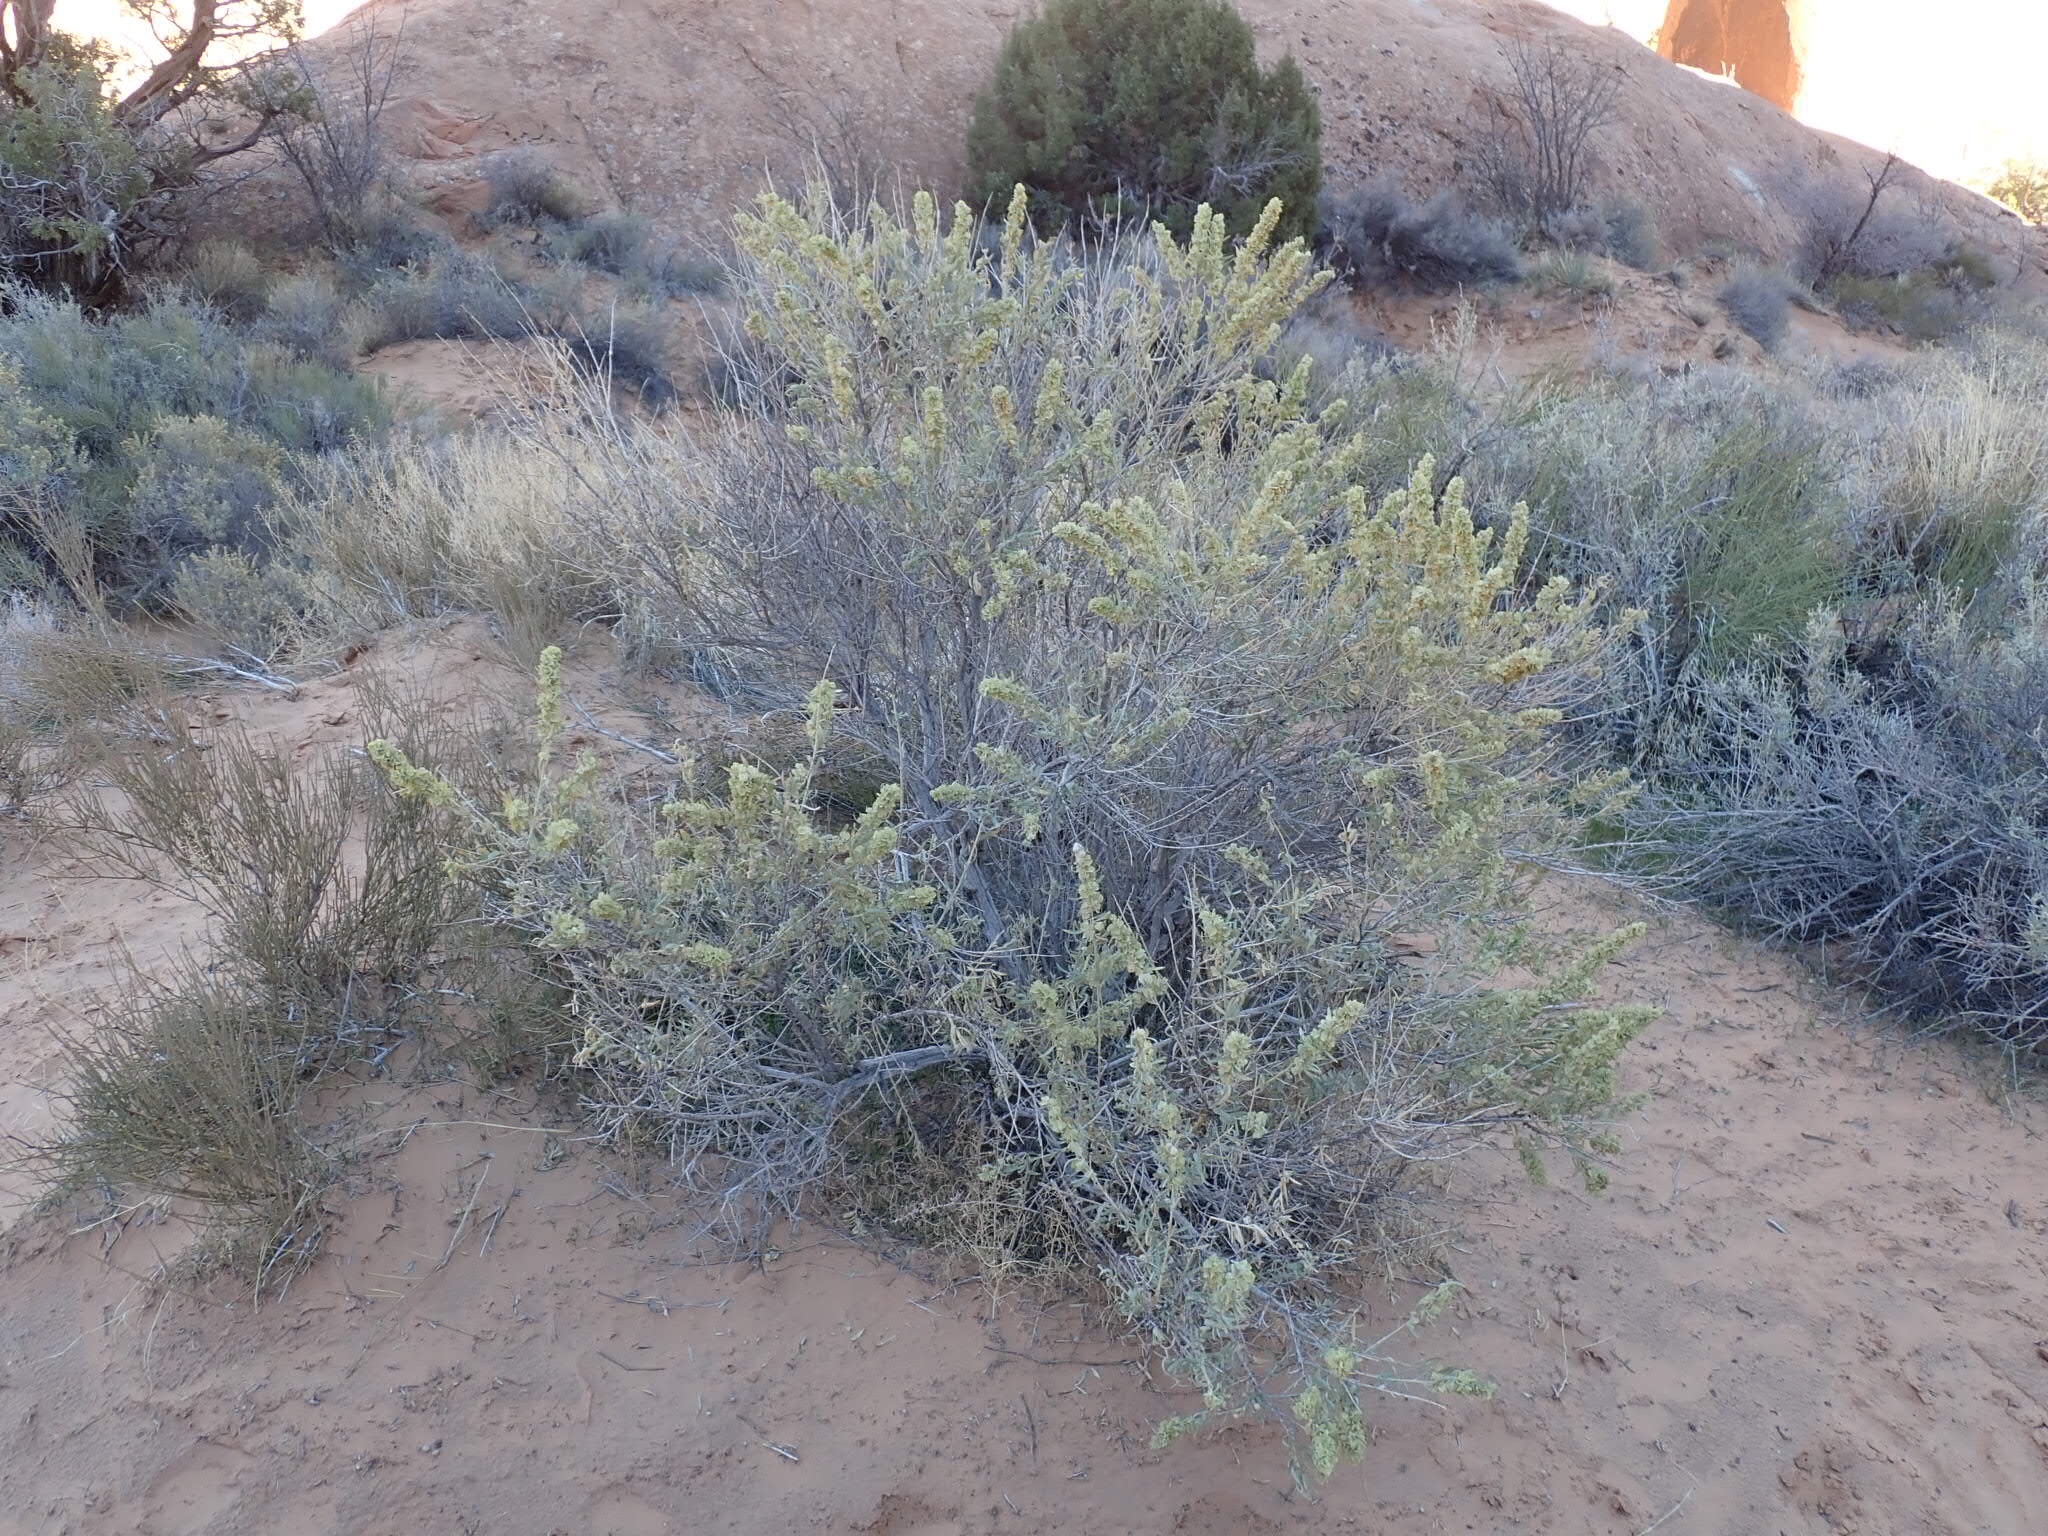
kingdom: Plantae
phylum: Tracheophyta
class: Magnoliopsida
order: Caryophyllales
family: Amaranthaceae
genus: Atriplex
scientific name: Atriplex canescens
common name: Four-wing saltbush
